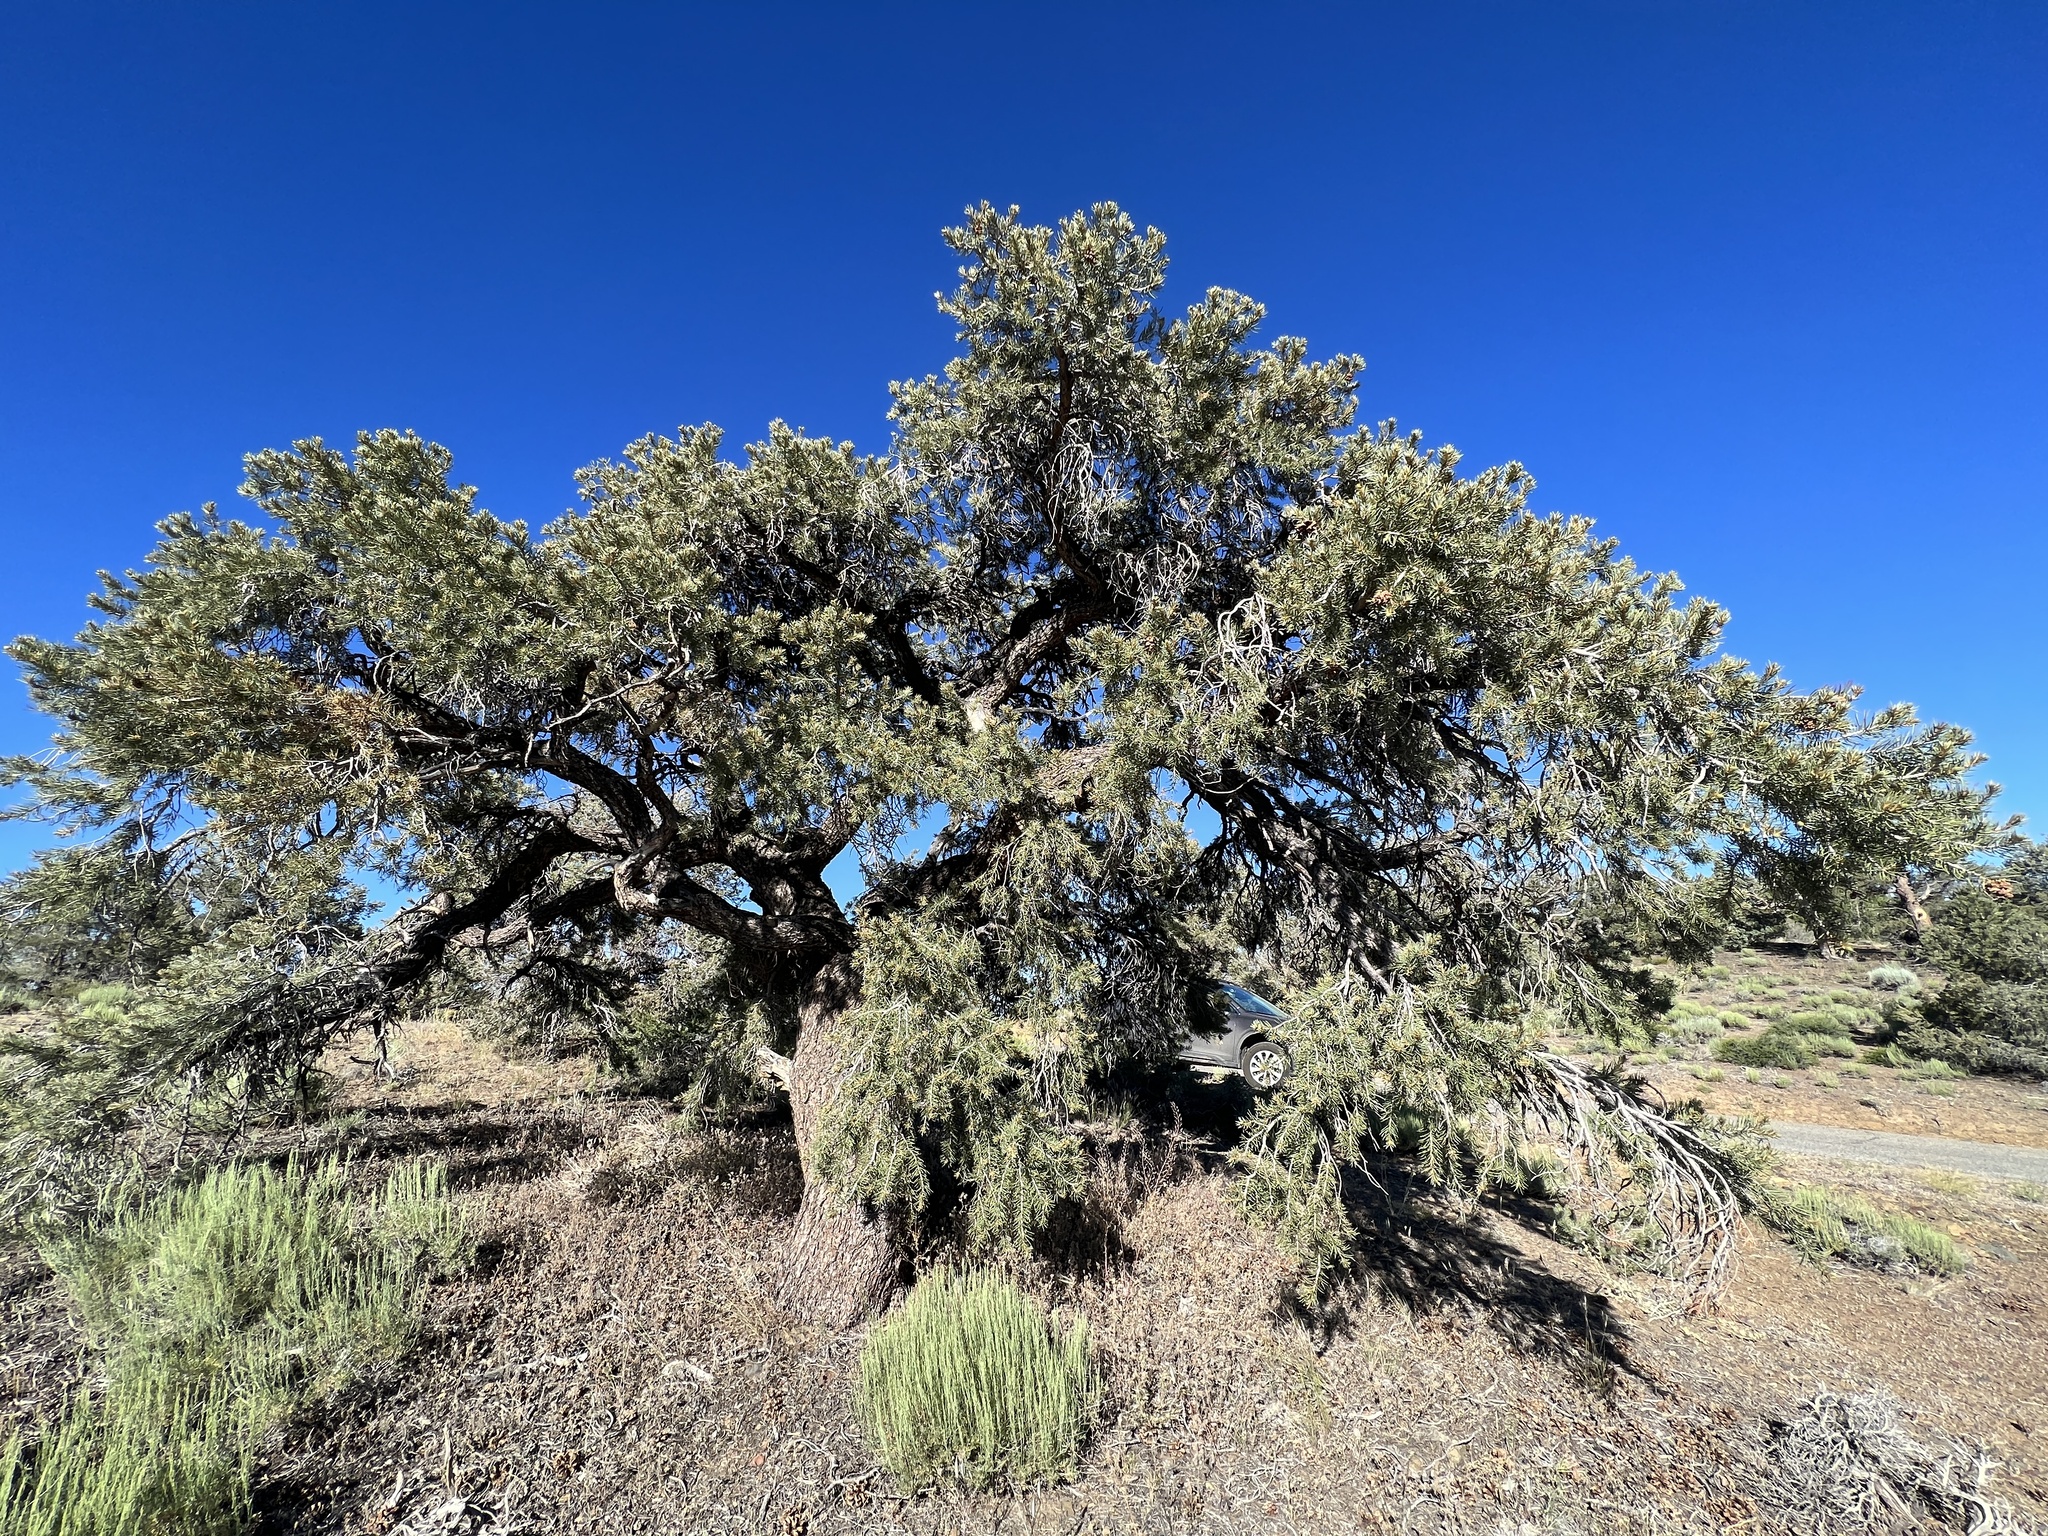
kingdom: Plantae
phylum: Tracheophyta
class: Pinopsida
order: Pinales
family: Pinaceae
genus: Pinus
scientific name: Pinus monophylla
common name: One-leaved nut pine
